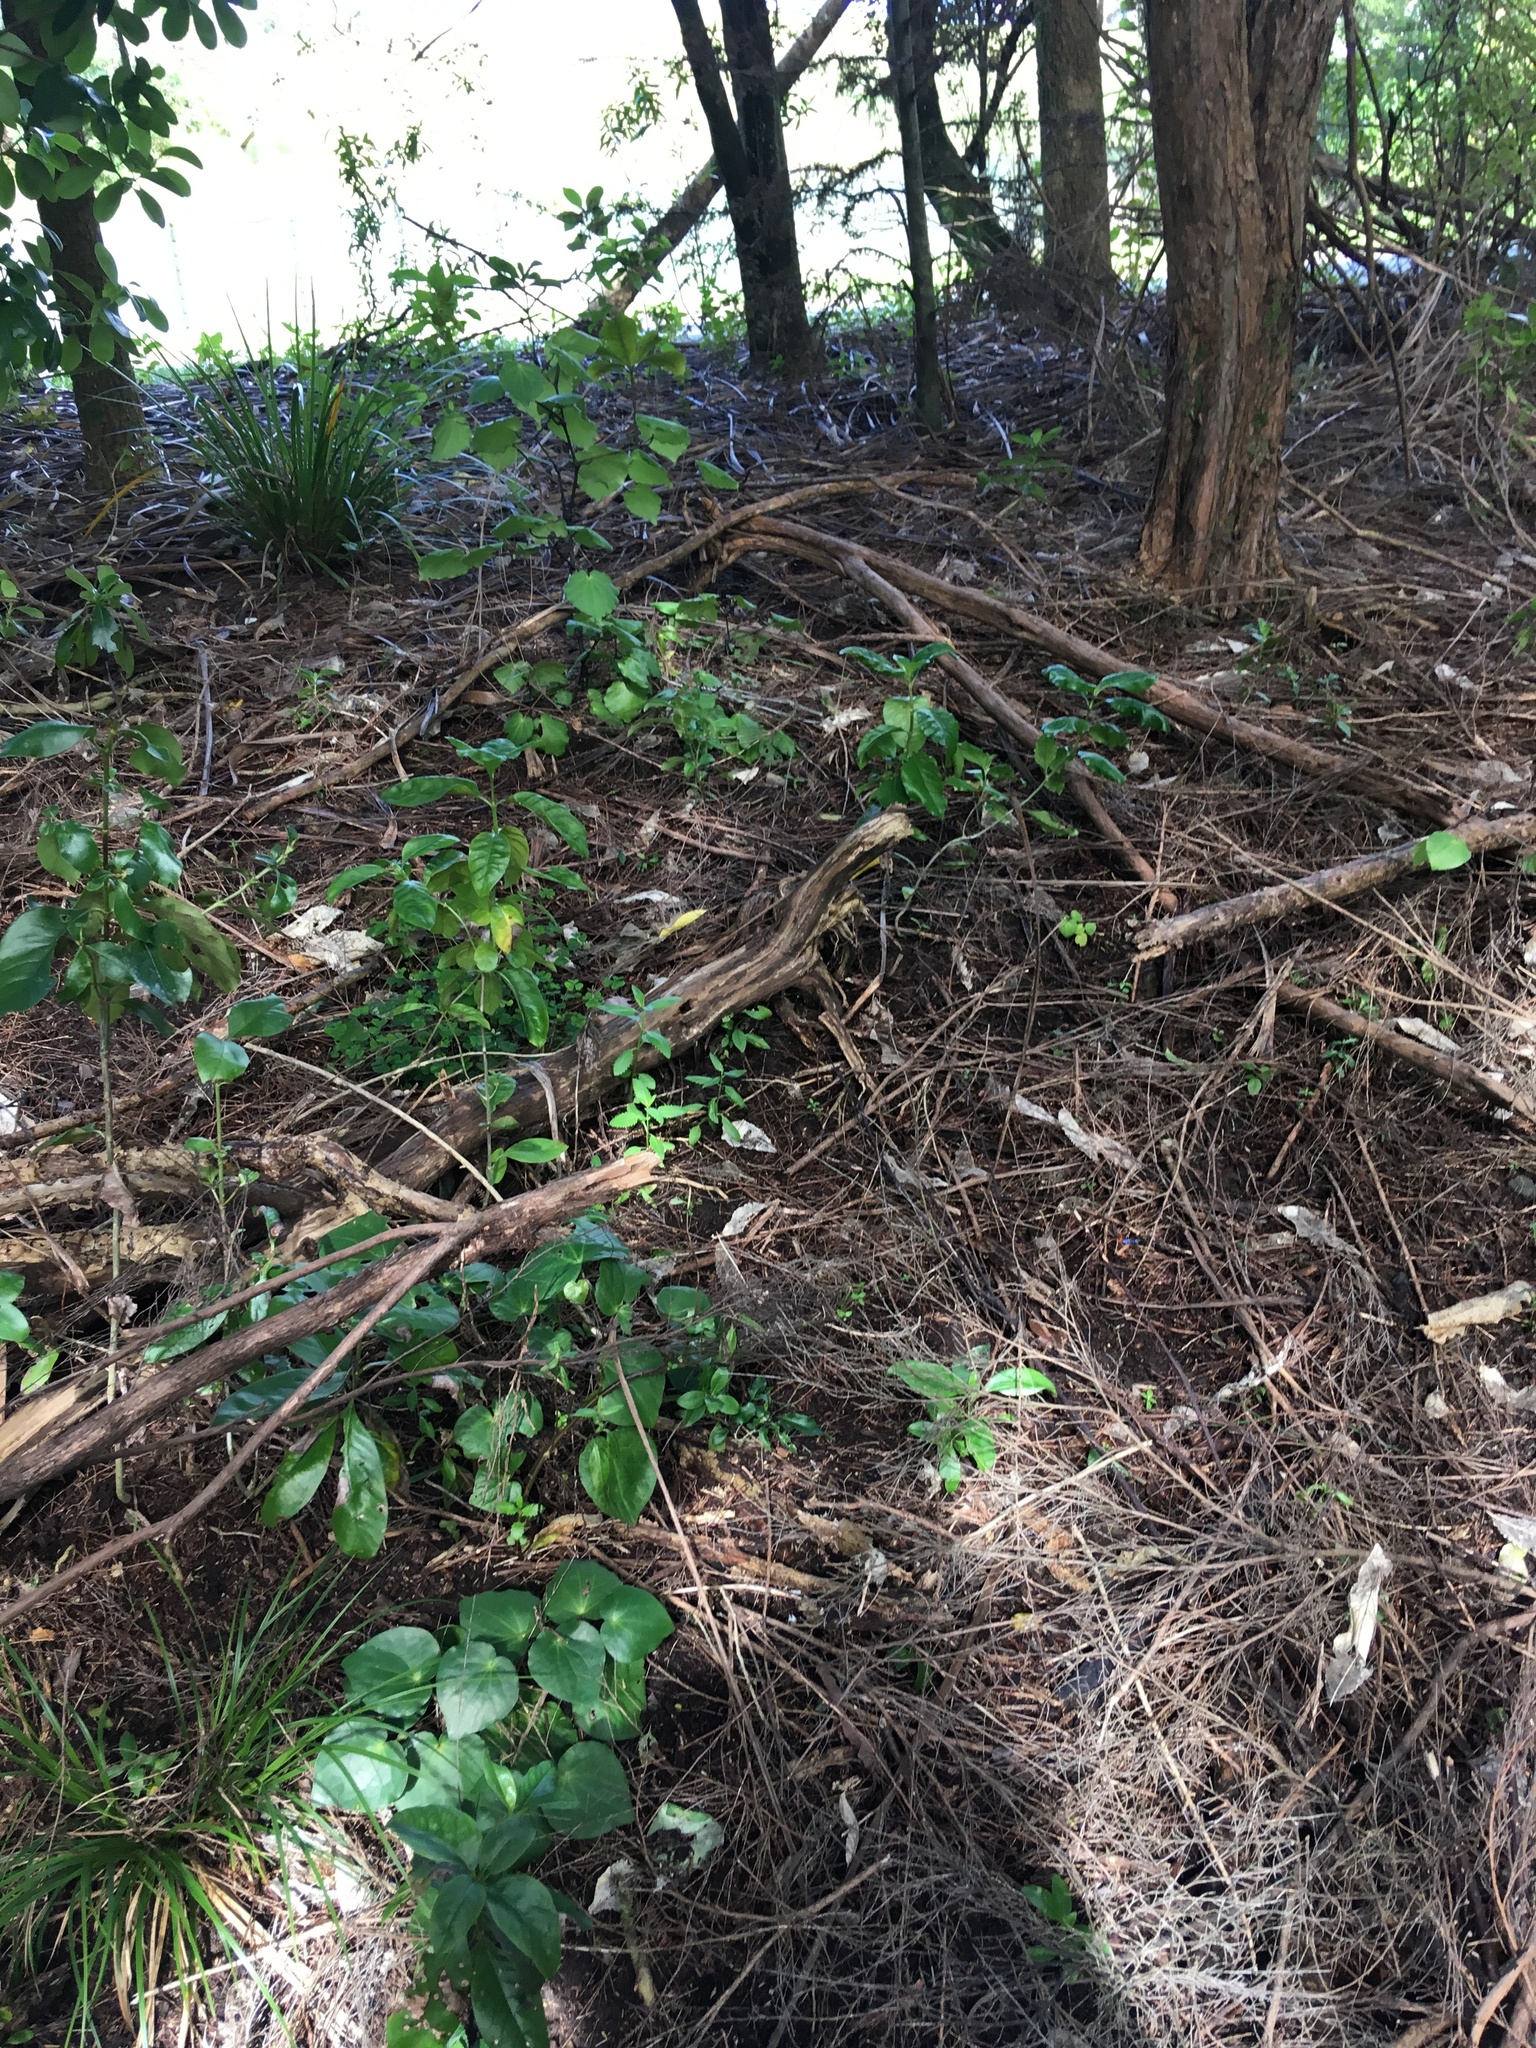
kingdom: Plantae
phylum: Tracheophyta
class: Magnoliopsida
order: Piperales
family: Piperaceae
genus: Macropiper
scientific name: Macropiper excelsum
